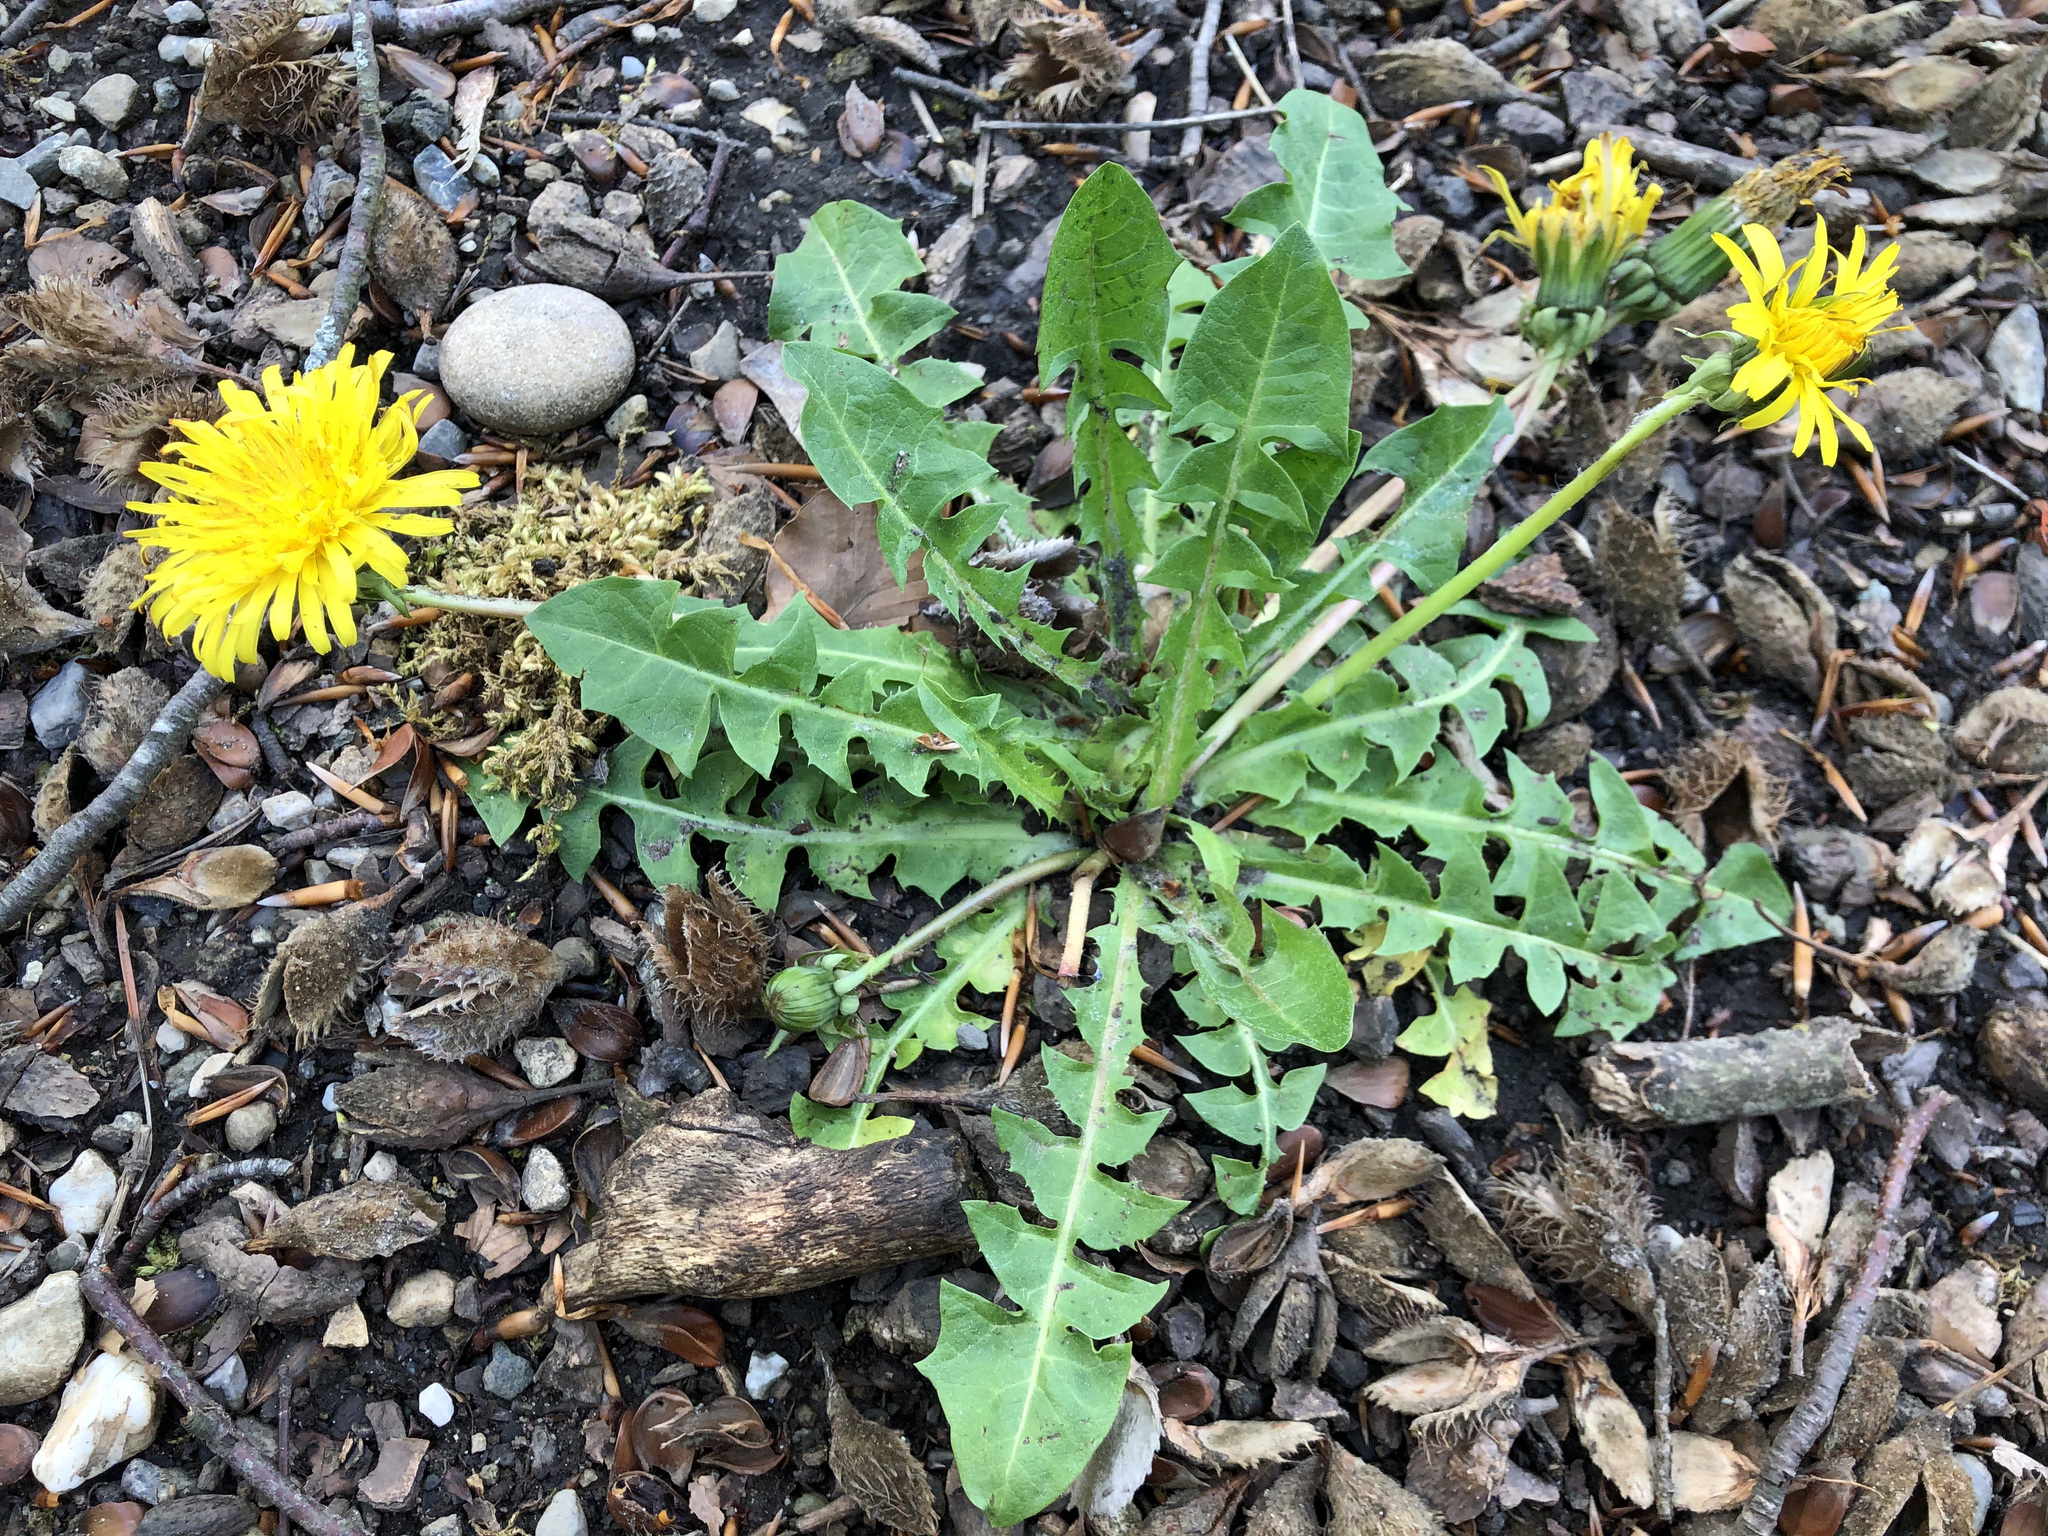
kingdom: Plantae
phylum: Tracheophyta
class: Magnoliopsida
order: Asterales
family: Asteraceae
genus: Taraxacum
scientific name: Taraxacum officinale
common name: Common dandelion
